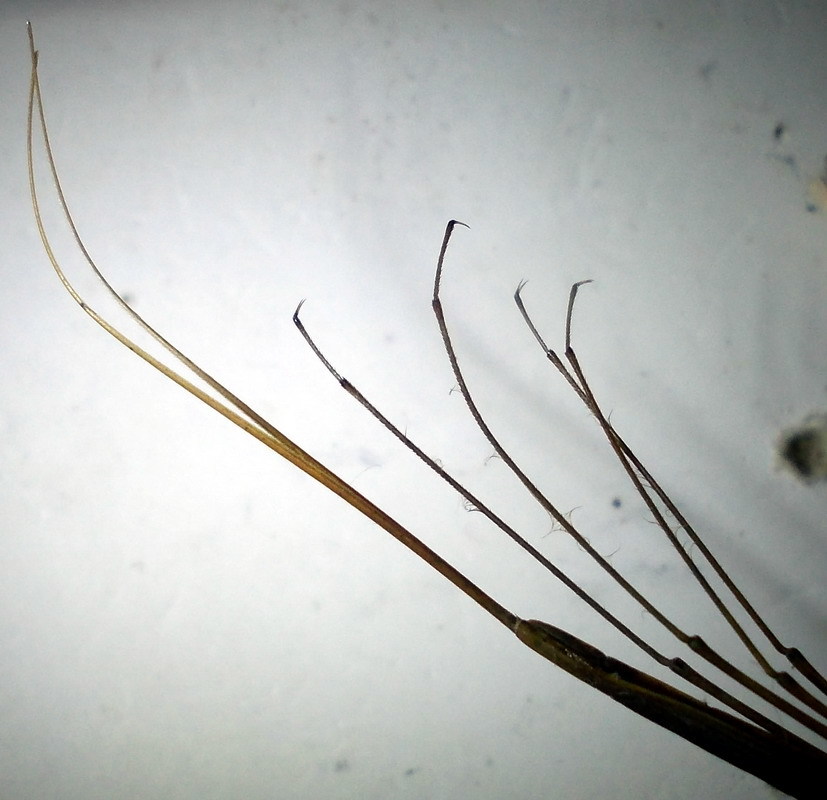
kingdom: Animalia
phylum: Arthropoda
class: Insecta
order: Hemiptera
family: Nepidae
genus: Ranatra
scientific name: Ranatra linearis
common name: Water stick insect
